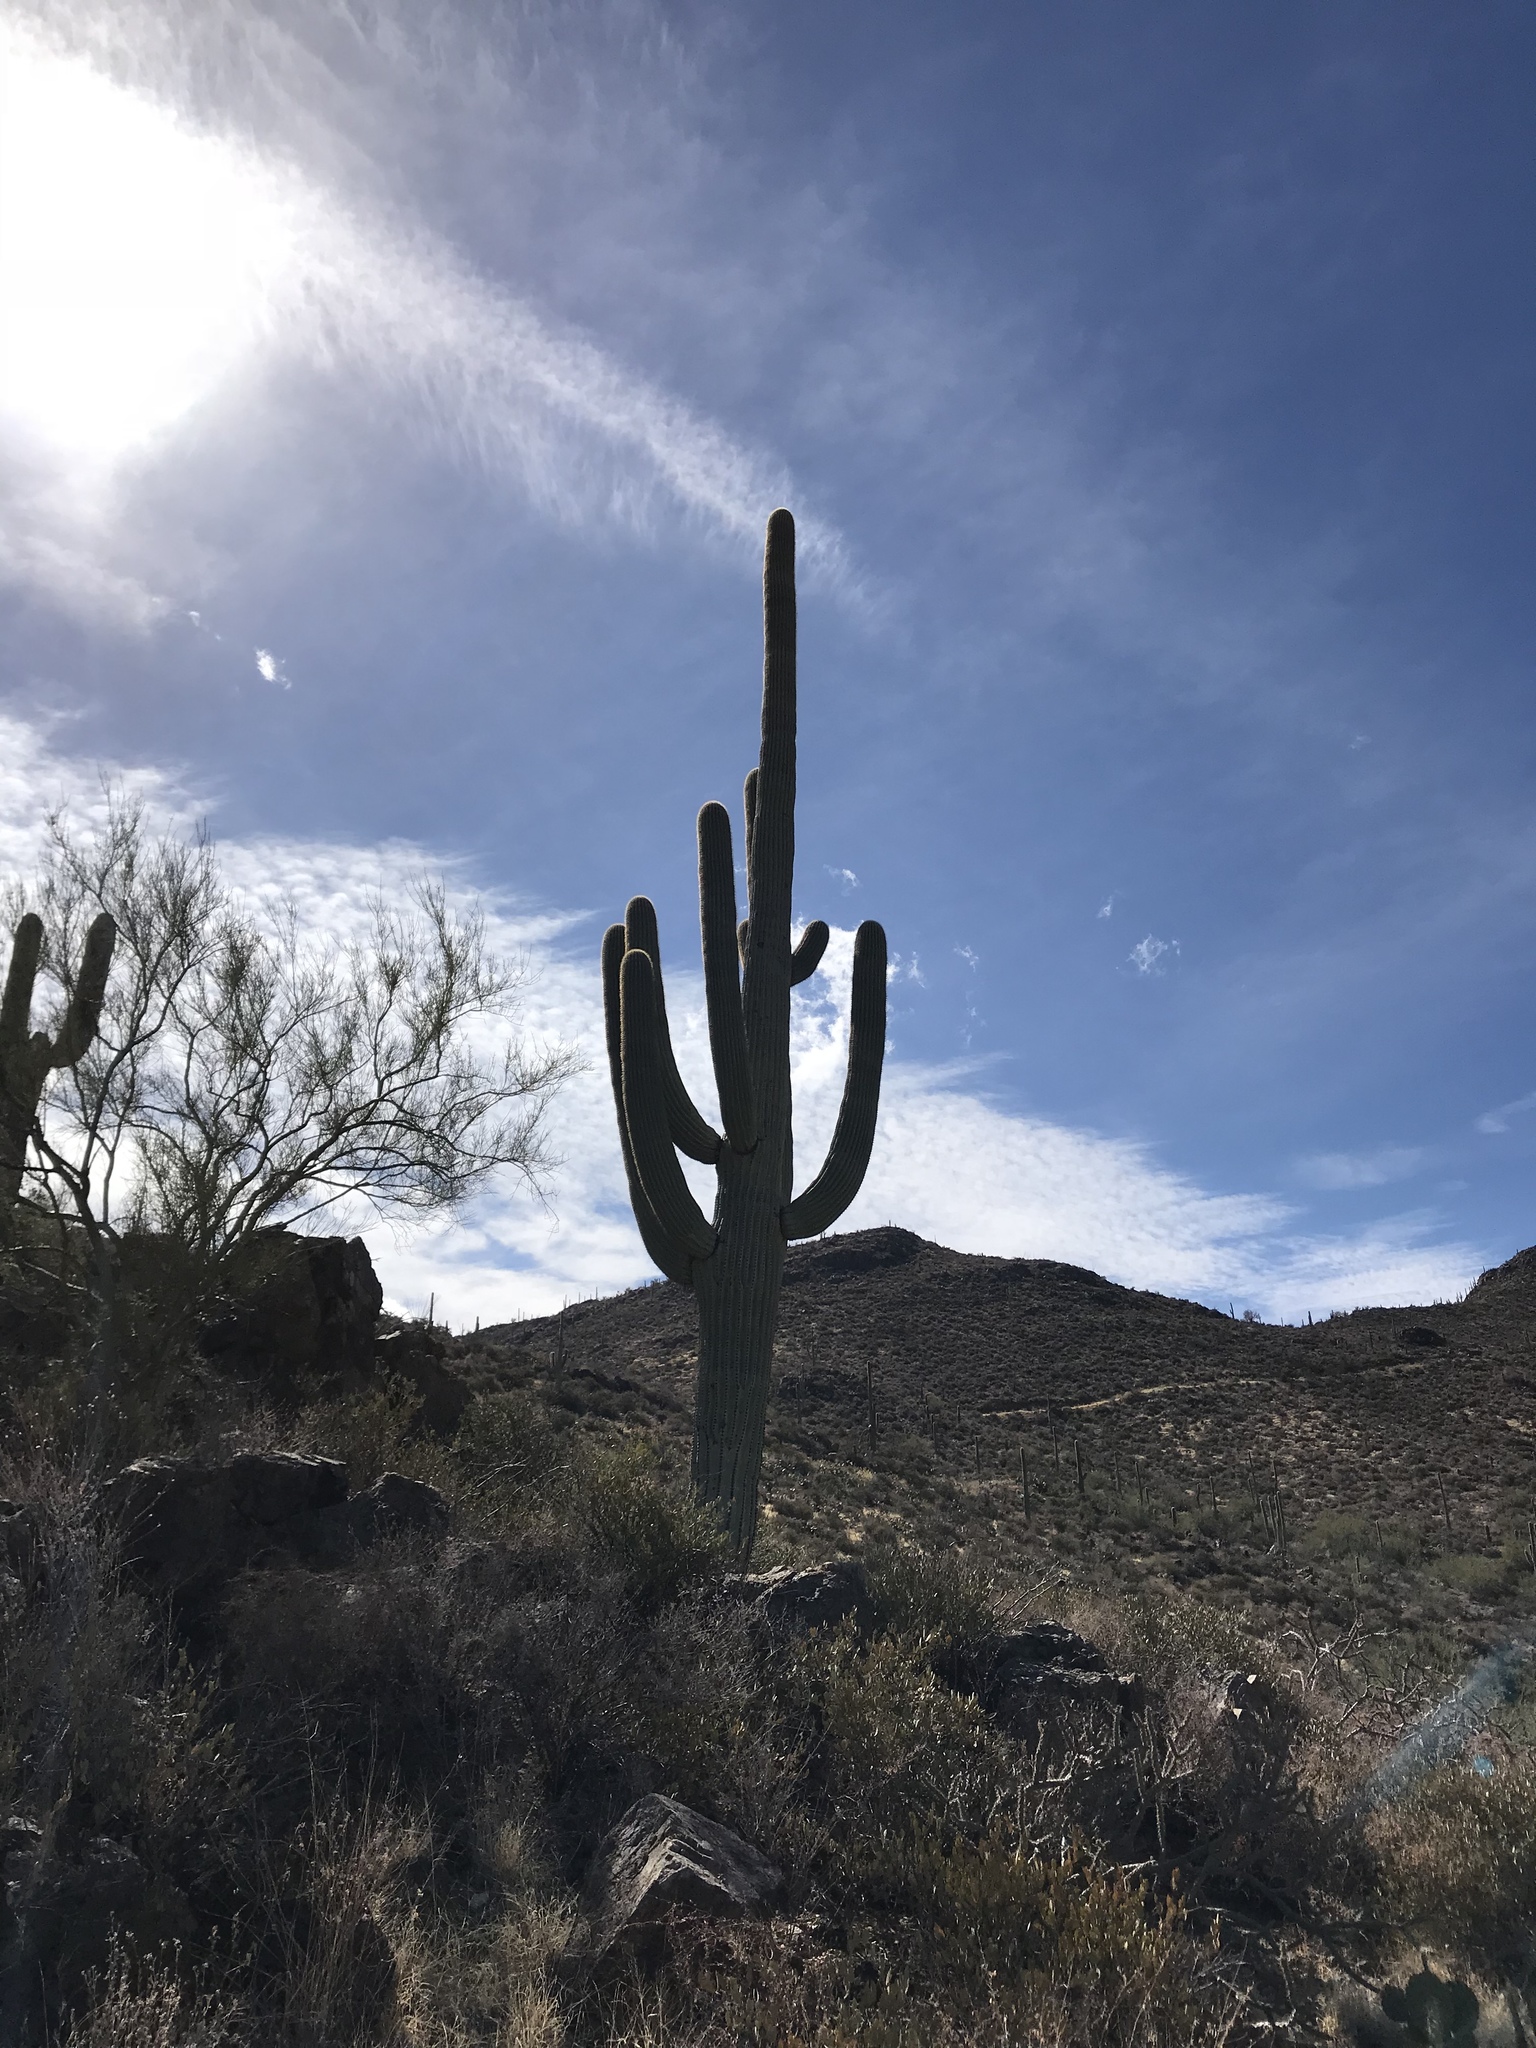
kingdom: Plantae
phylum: Tracheophyta
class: Magnoliopsida
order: Caryophyllales
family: Cactaceae
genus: Carnegiea
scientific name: Carnegiea gigantea
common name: Saguaro
